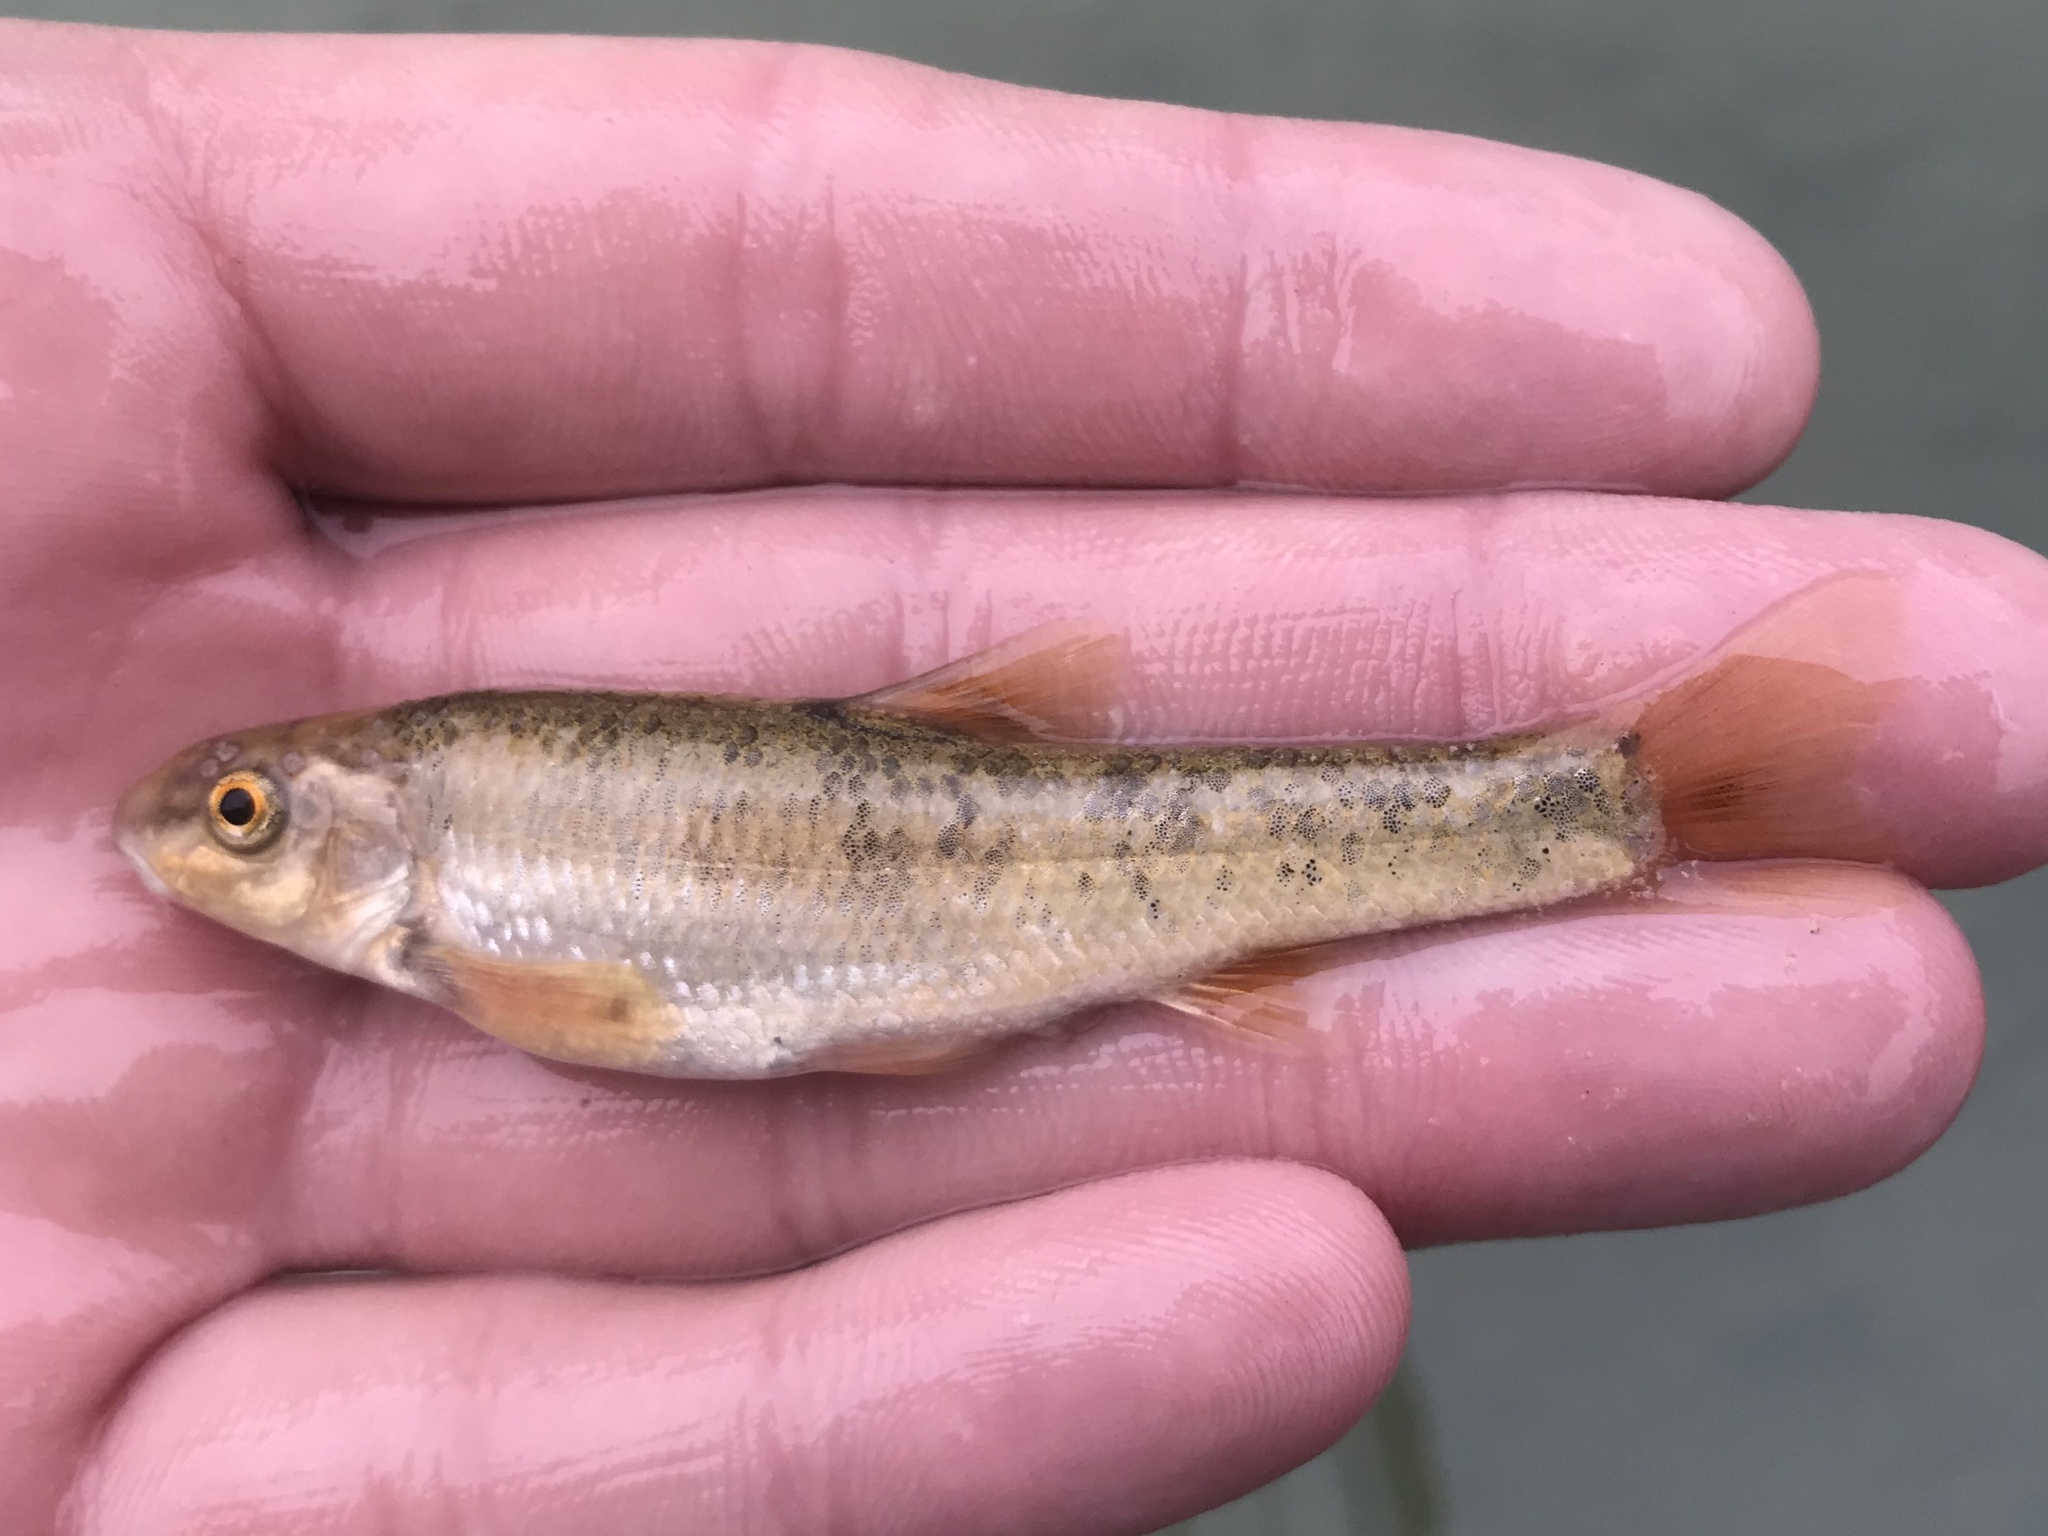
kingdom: Animalia
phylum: Chordata
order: Cypriniformes
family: Cyprinidae
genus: Campostoma
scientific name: Campostoma anomalum
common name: Central stoneroller
